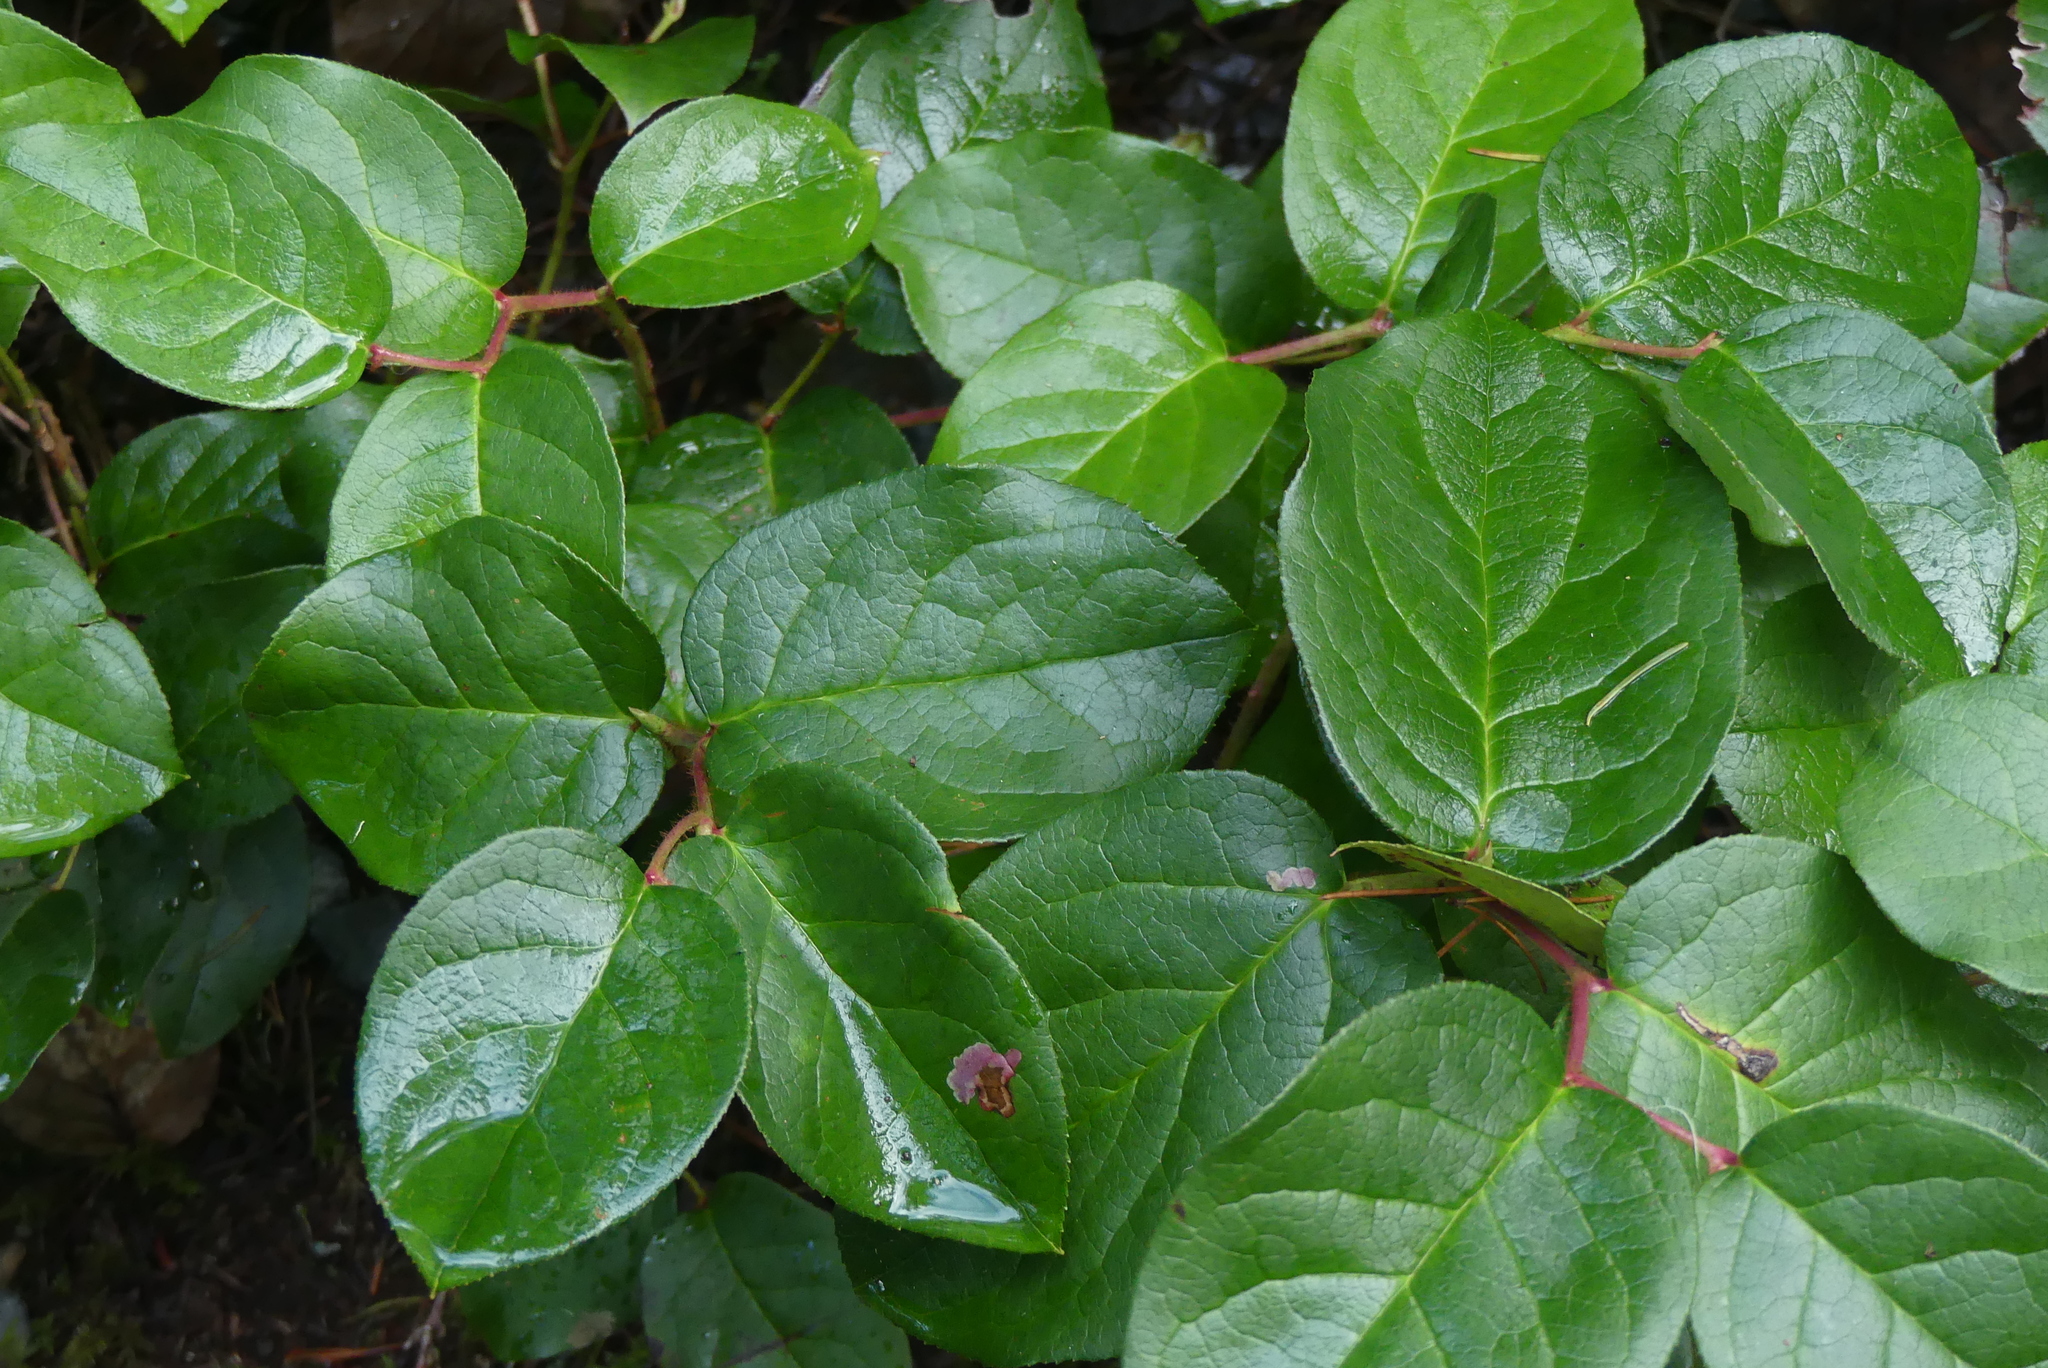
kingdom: Plantae
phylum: Tracheophyta
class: Magnoliopsida
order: Ericales
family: Ericaceae
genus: Gaultheria
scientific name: Gaultheria shallon
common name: Shallon
